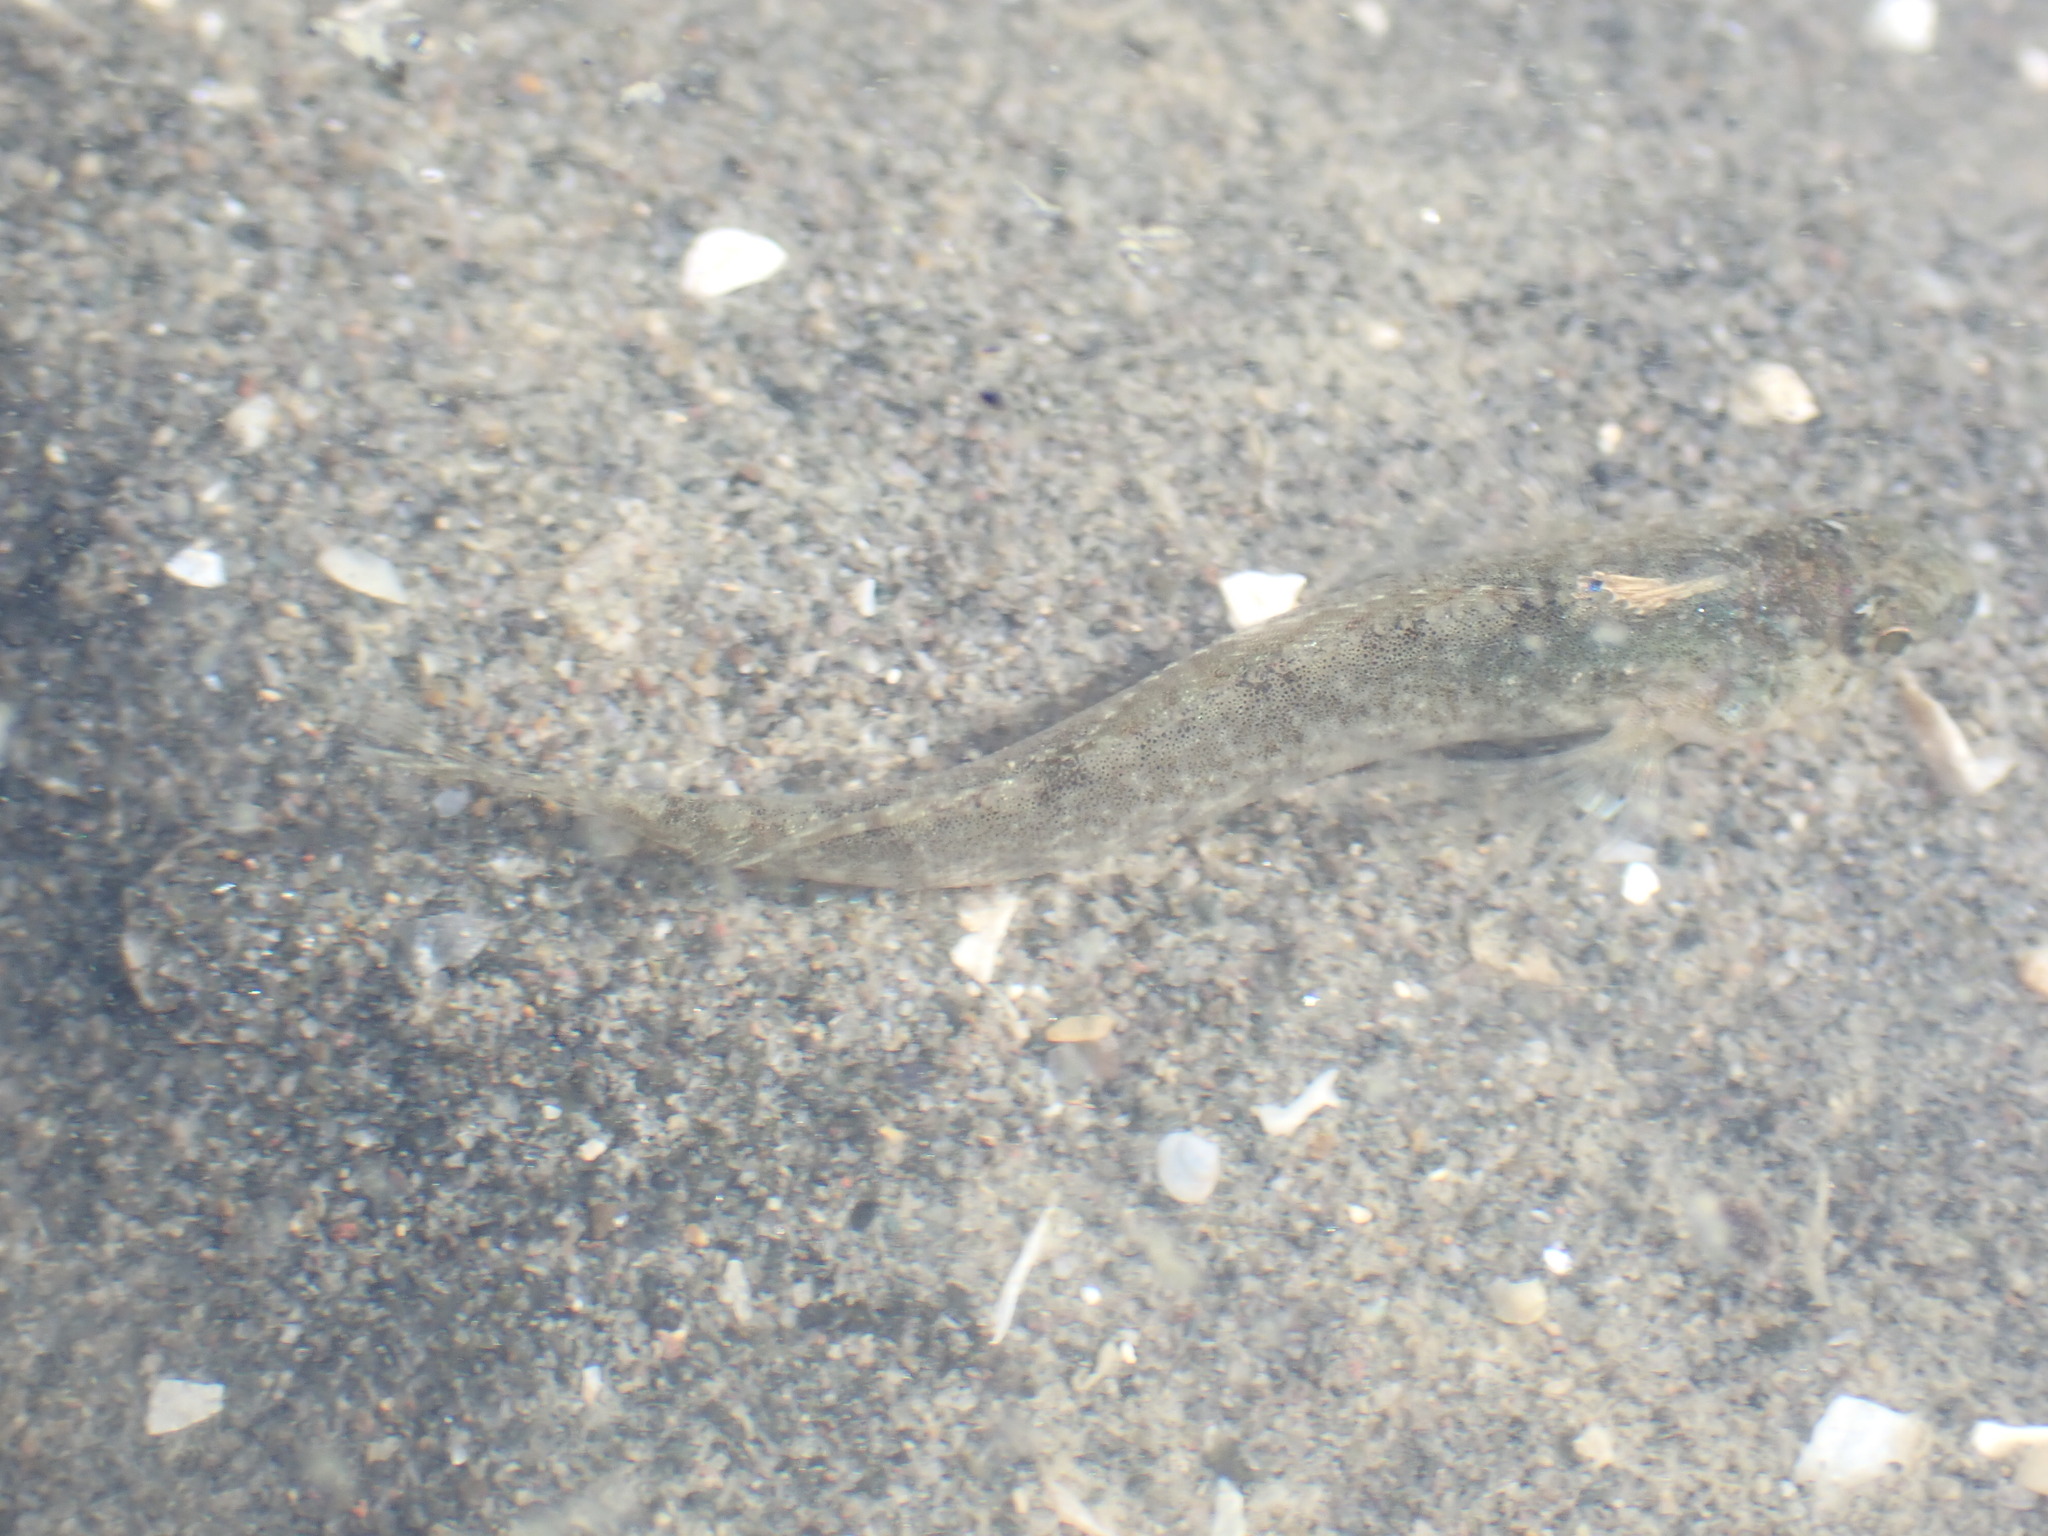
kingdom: Animalia
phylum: Chordata
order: Perciformes
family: Tripterygiidae
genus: Forsterygion
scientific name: Forsterygion capito
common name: Spotted robust triplefin
